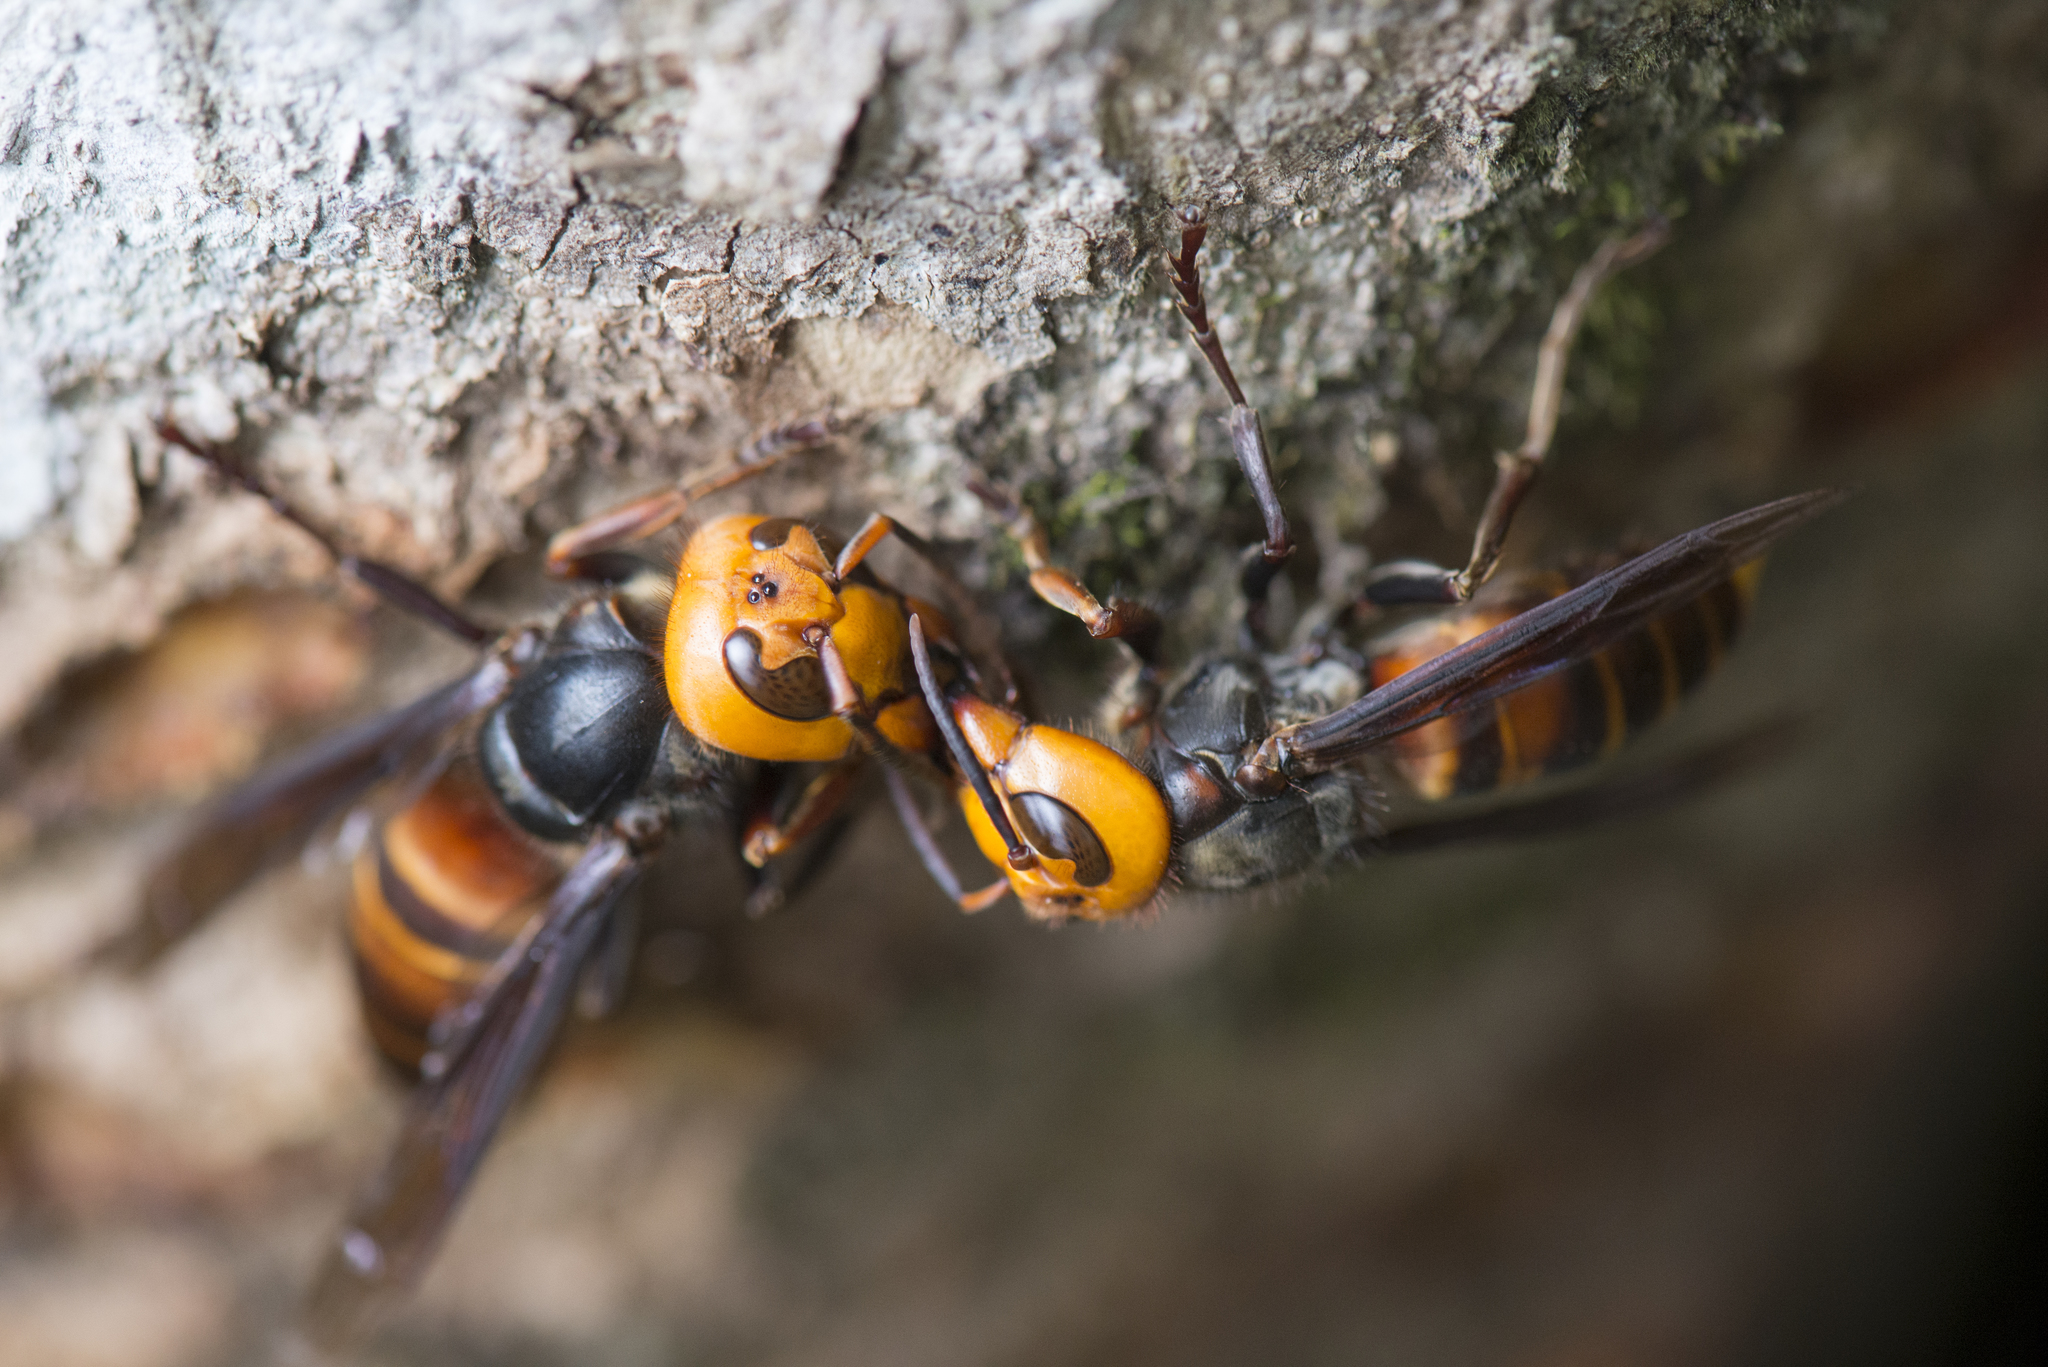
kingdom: Animalia
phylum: Arthropoda
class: Insecta
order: Hymenoptera
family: Vespidae
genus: Vespa
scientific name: Vespa mandarinia
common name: Asian giant hornet
